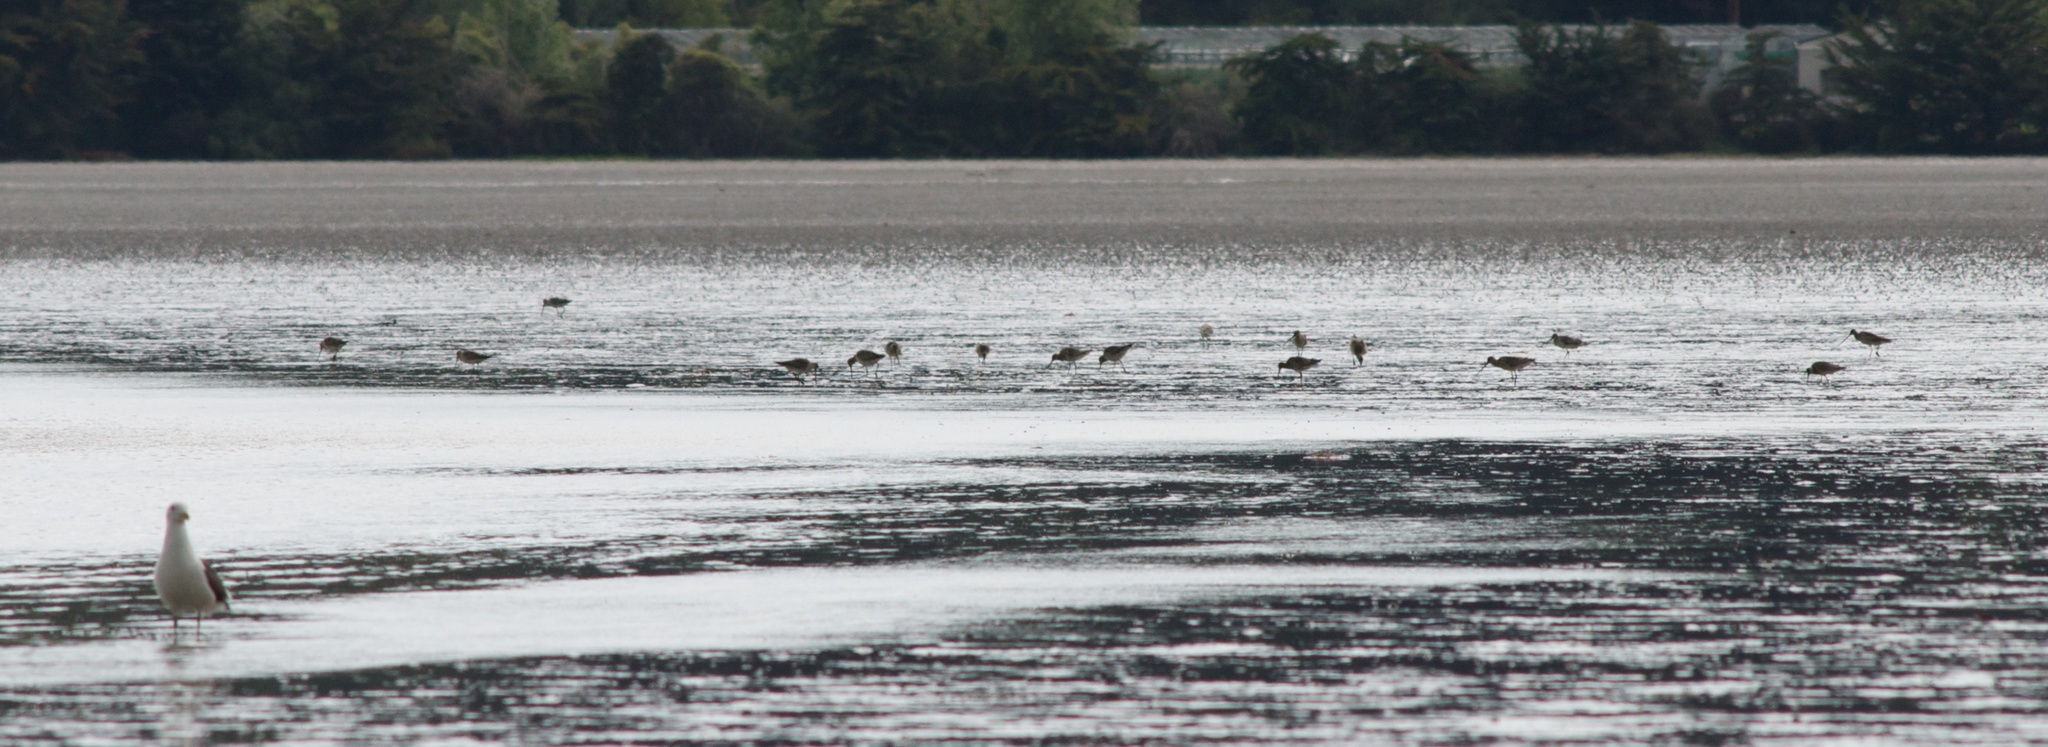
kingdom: Animalia
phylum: Chordata
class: Aves
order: Charadriiformes
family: Scolopacidae
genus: Limosa
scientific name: Limosa lapponica
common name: Bar-tailed godwit
